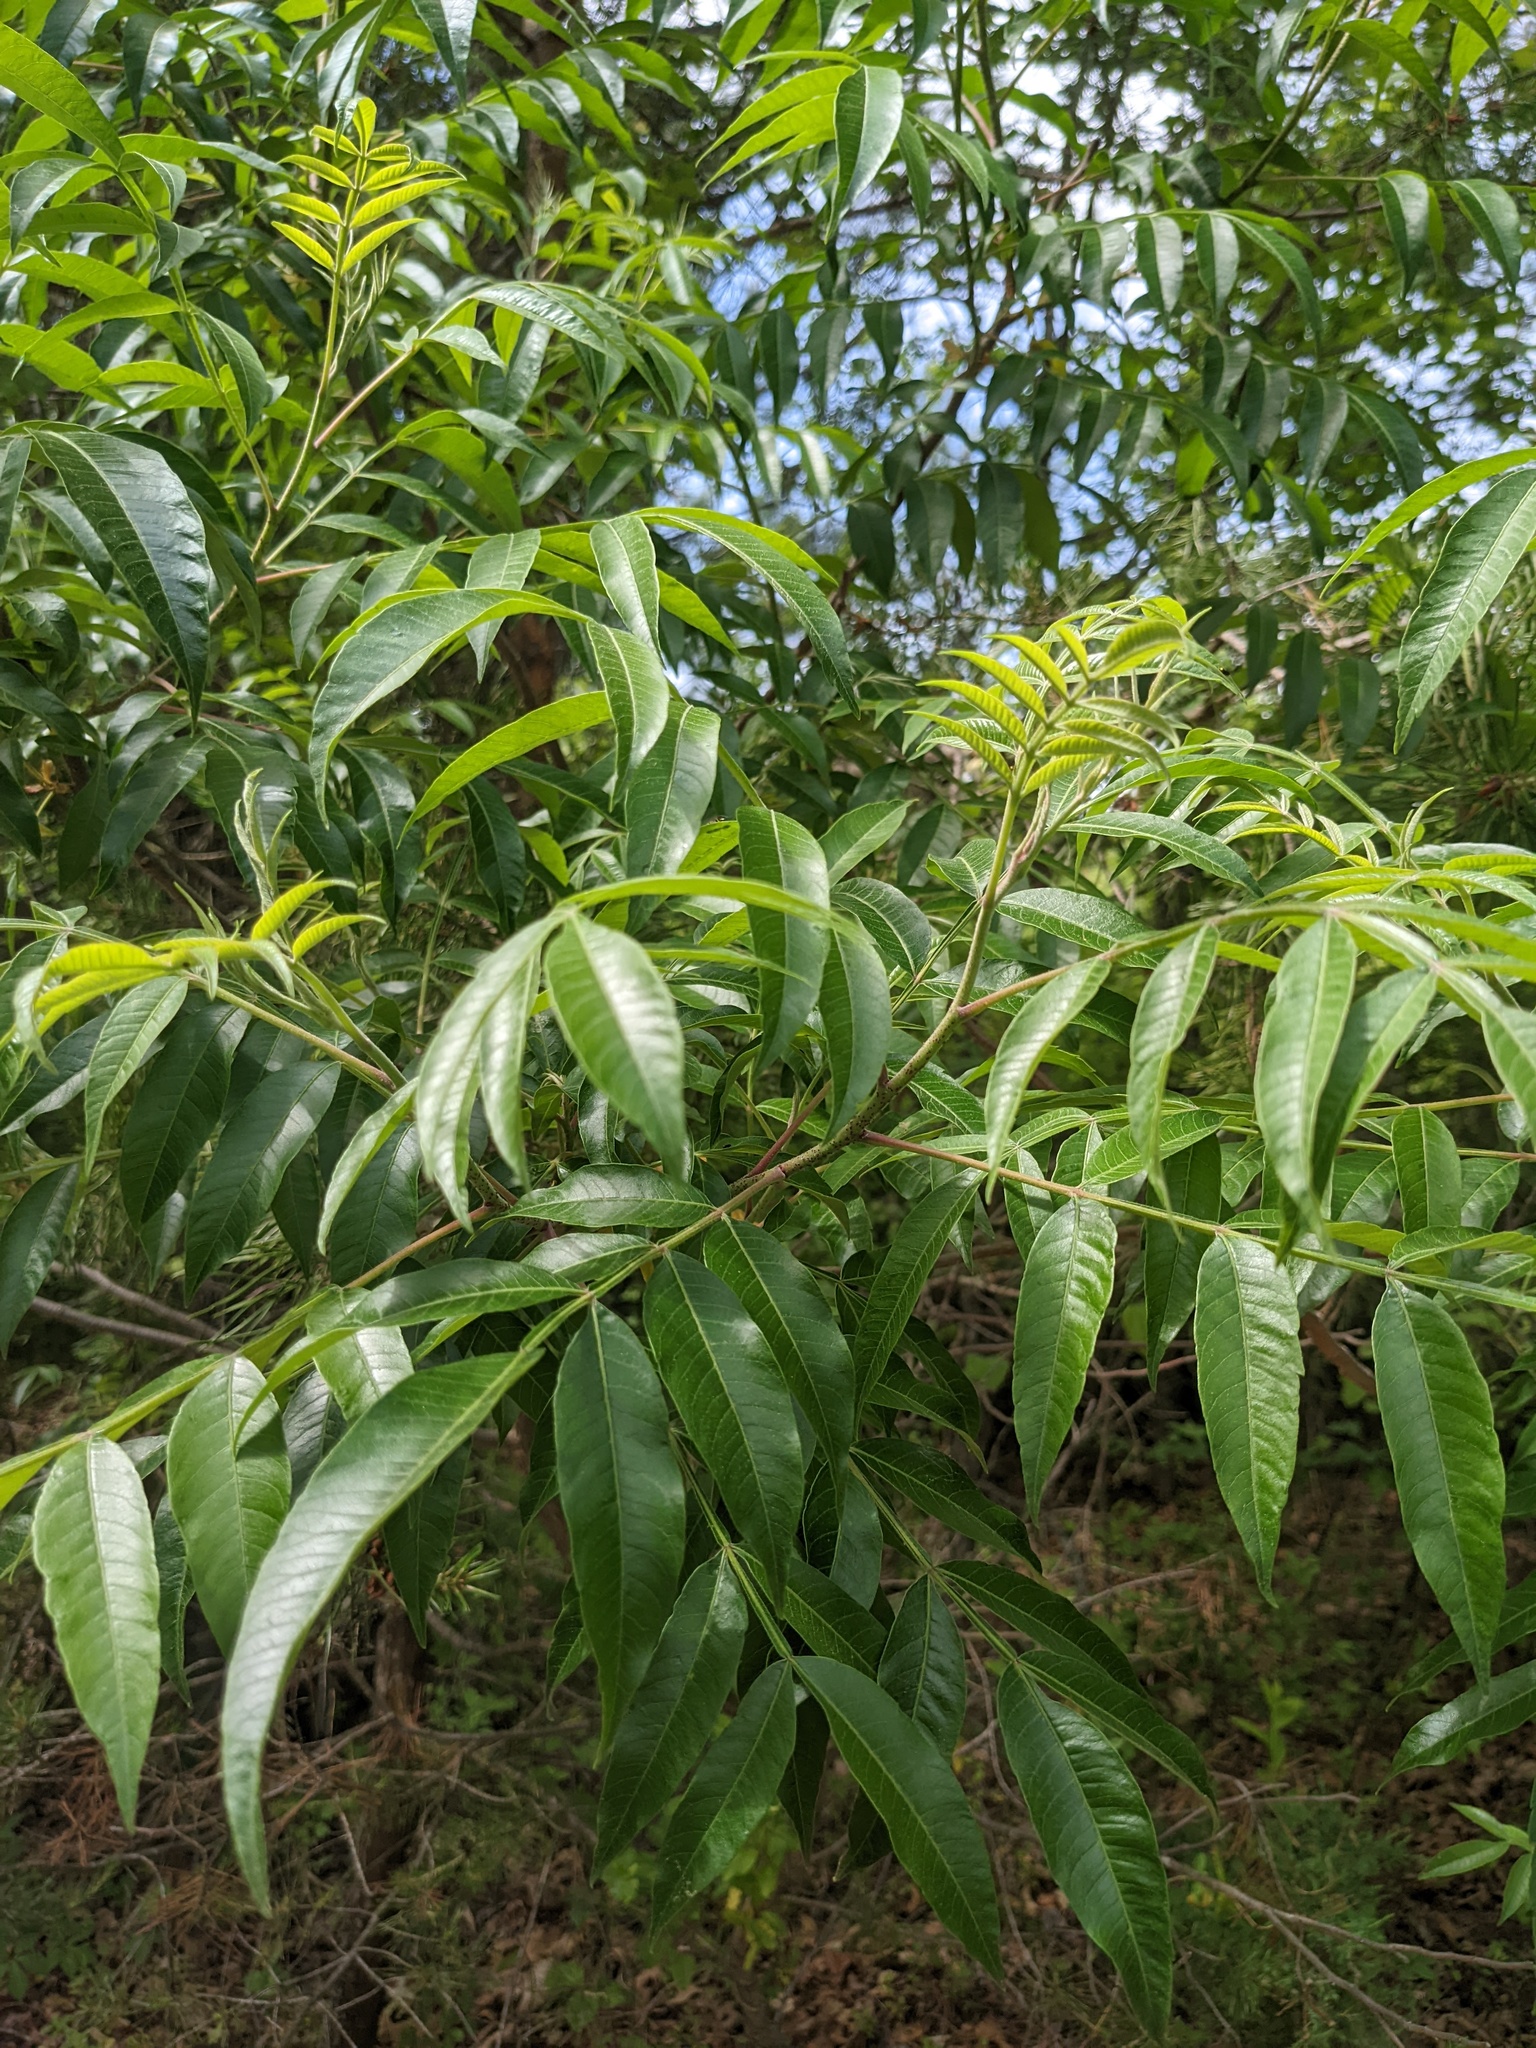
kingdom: Plantae
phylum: Tracheophyta
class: Magnoliopsida
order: Sapindales
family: Anacardiaceae
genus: Rhus
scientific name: Rhus copallina
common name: Shining sumac
